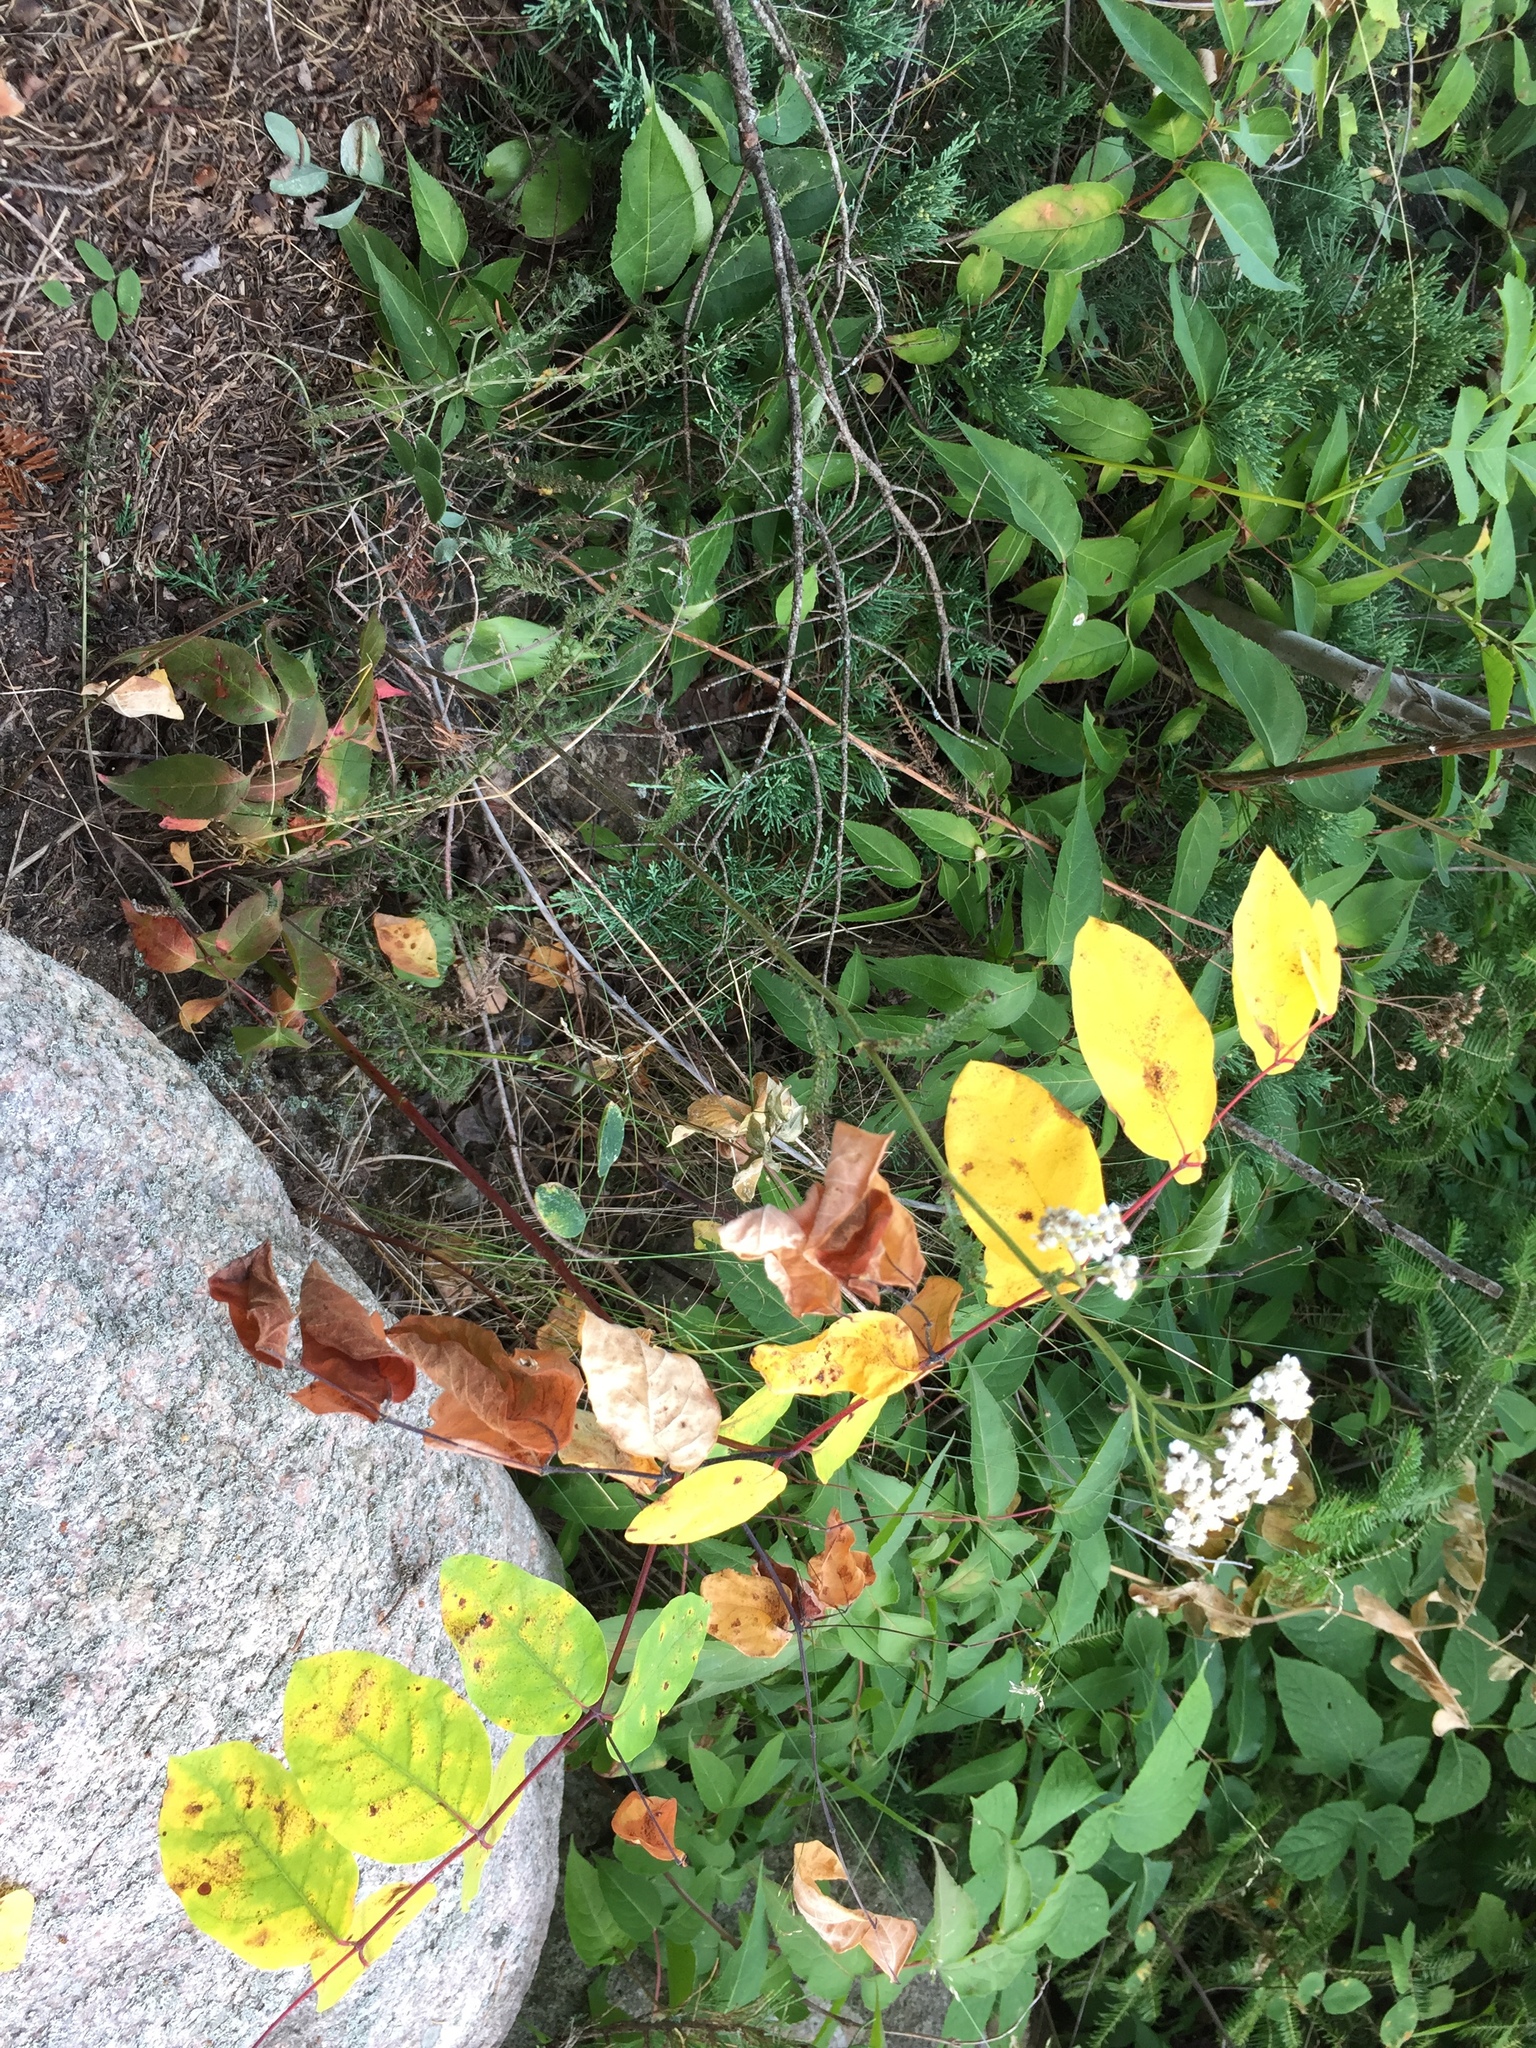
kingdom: Plantae
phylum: Tracheophyta
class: Magnoliopsida
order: Asterales
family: Asteraceae
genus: Achillea
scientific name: Achillea millefolium
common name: Yarrow
